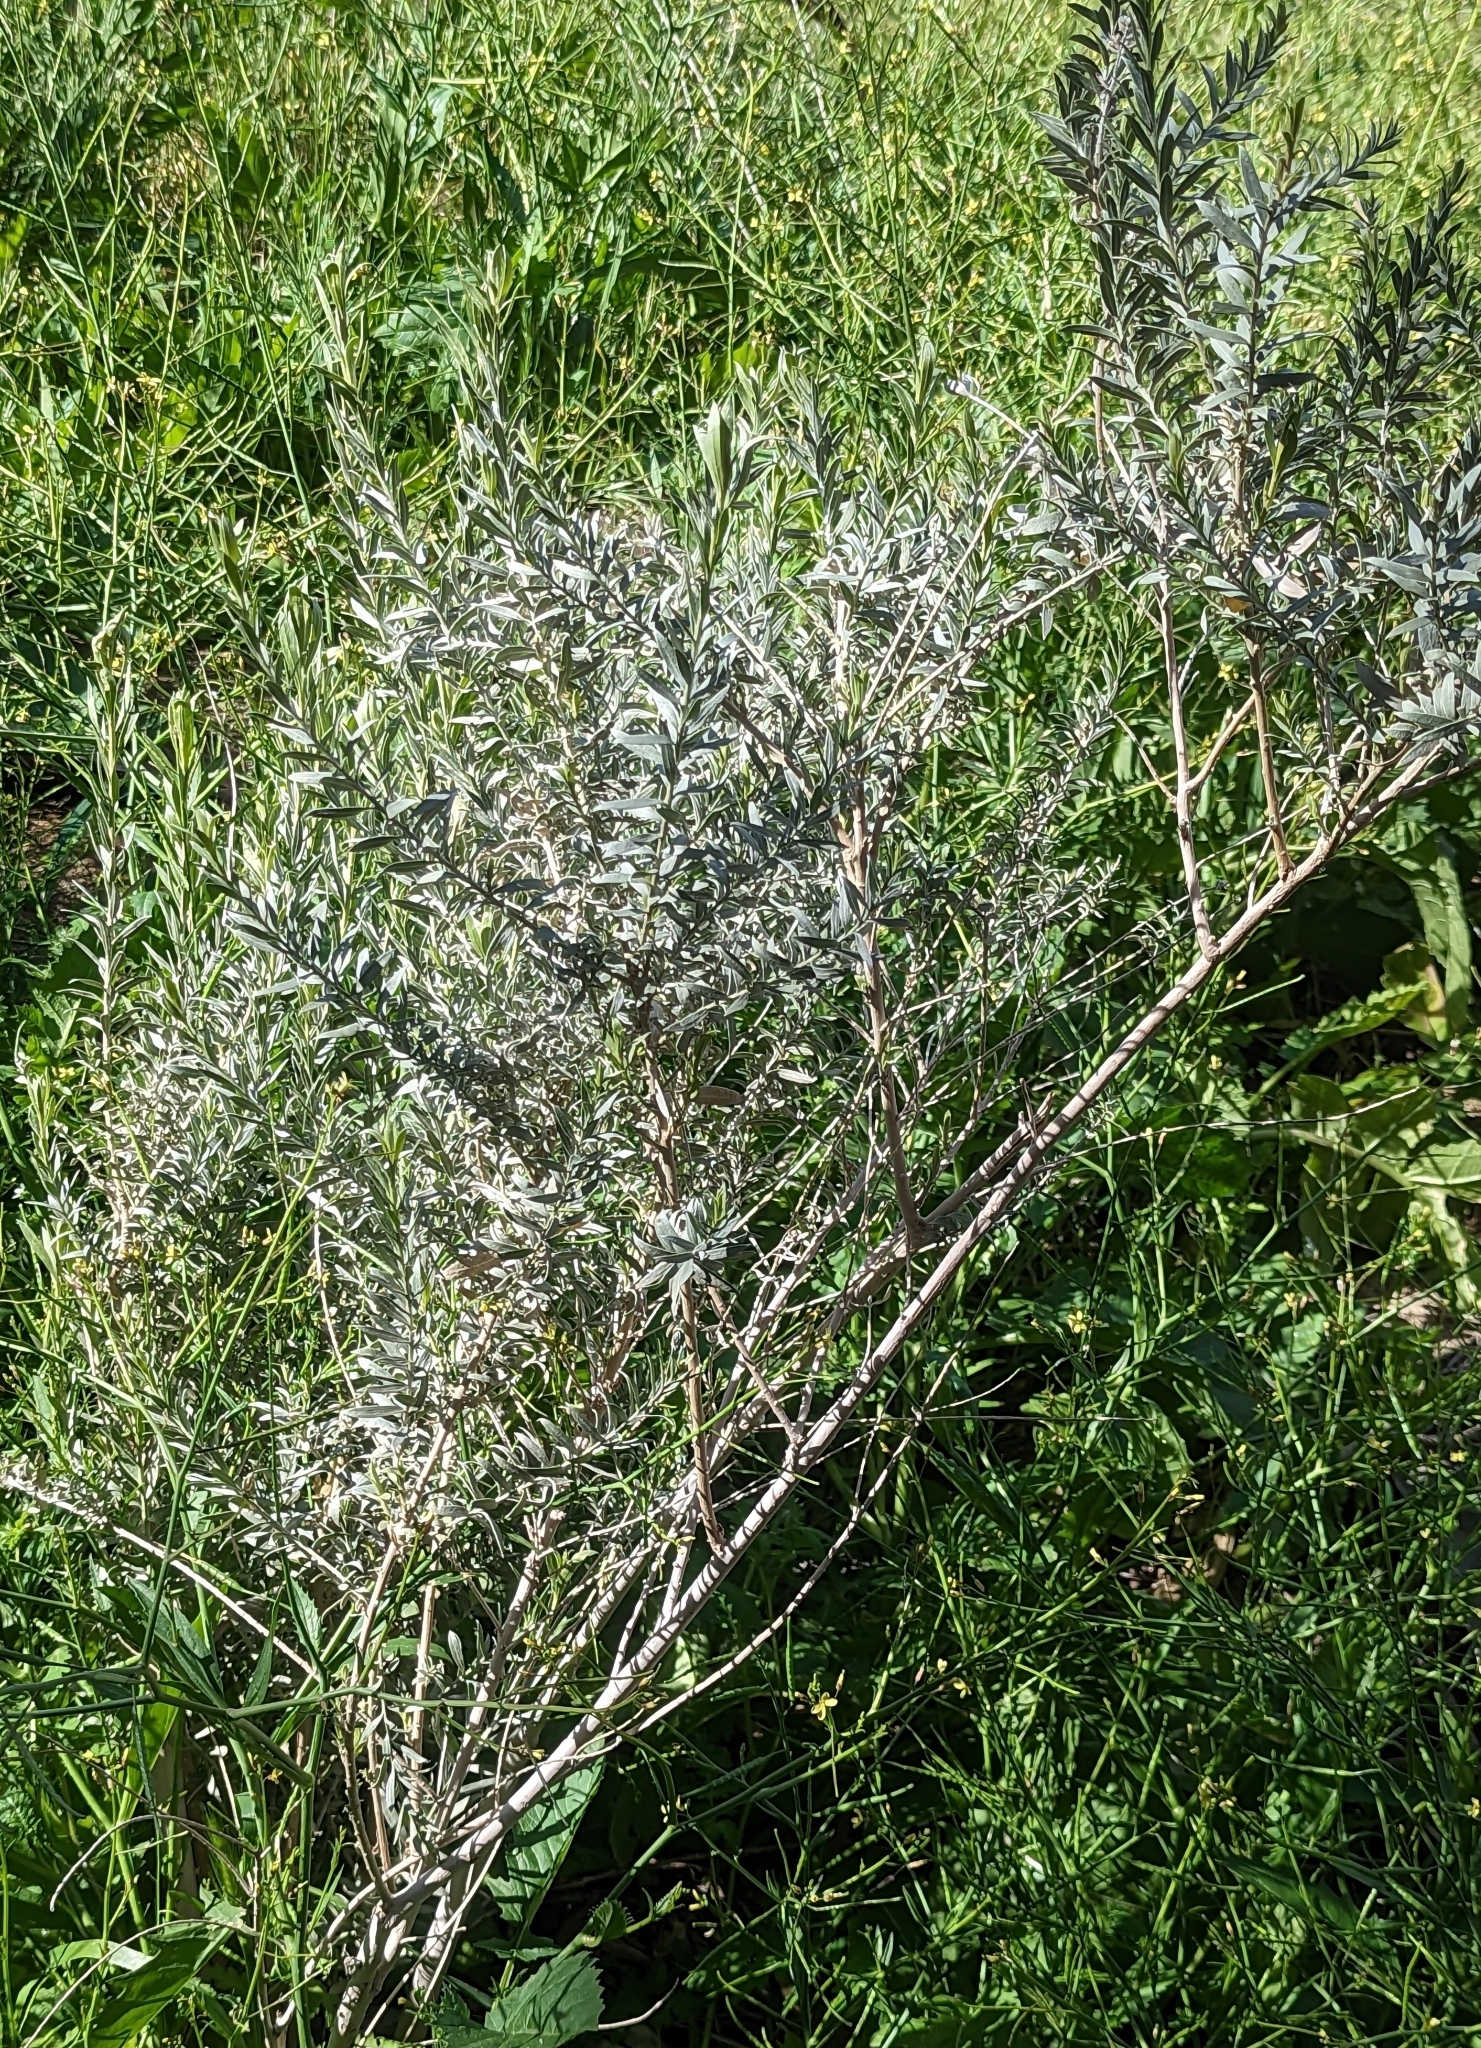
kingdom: Plantae
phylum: Tracheophyta
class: Magnoliopsida
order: Asterales
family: Asteraceae
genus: Pluchea
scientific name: Pluchea sericea
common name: Arrow-weed
